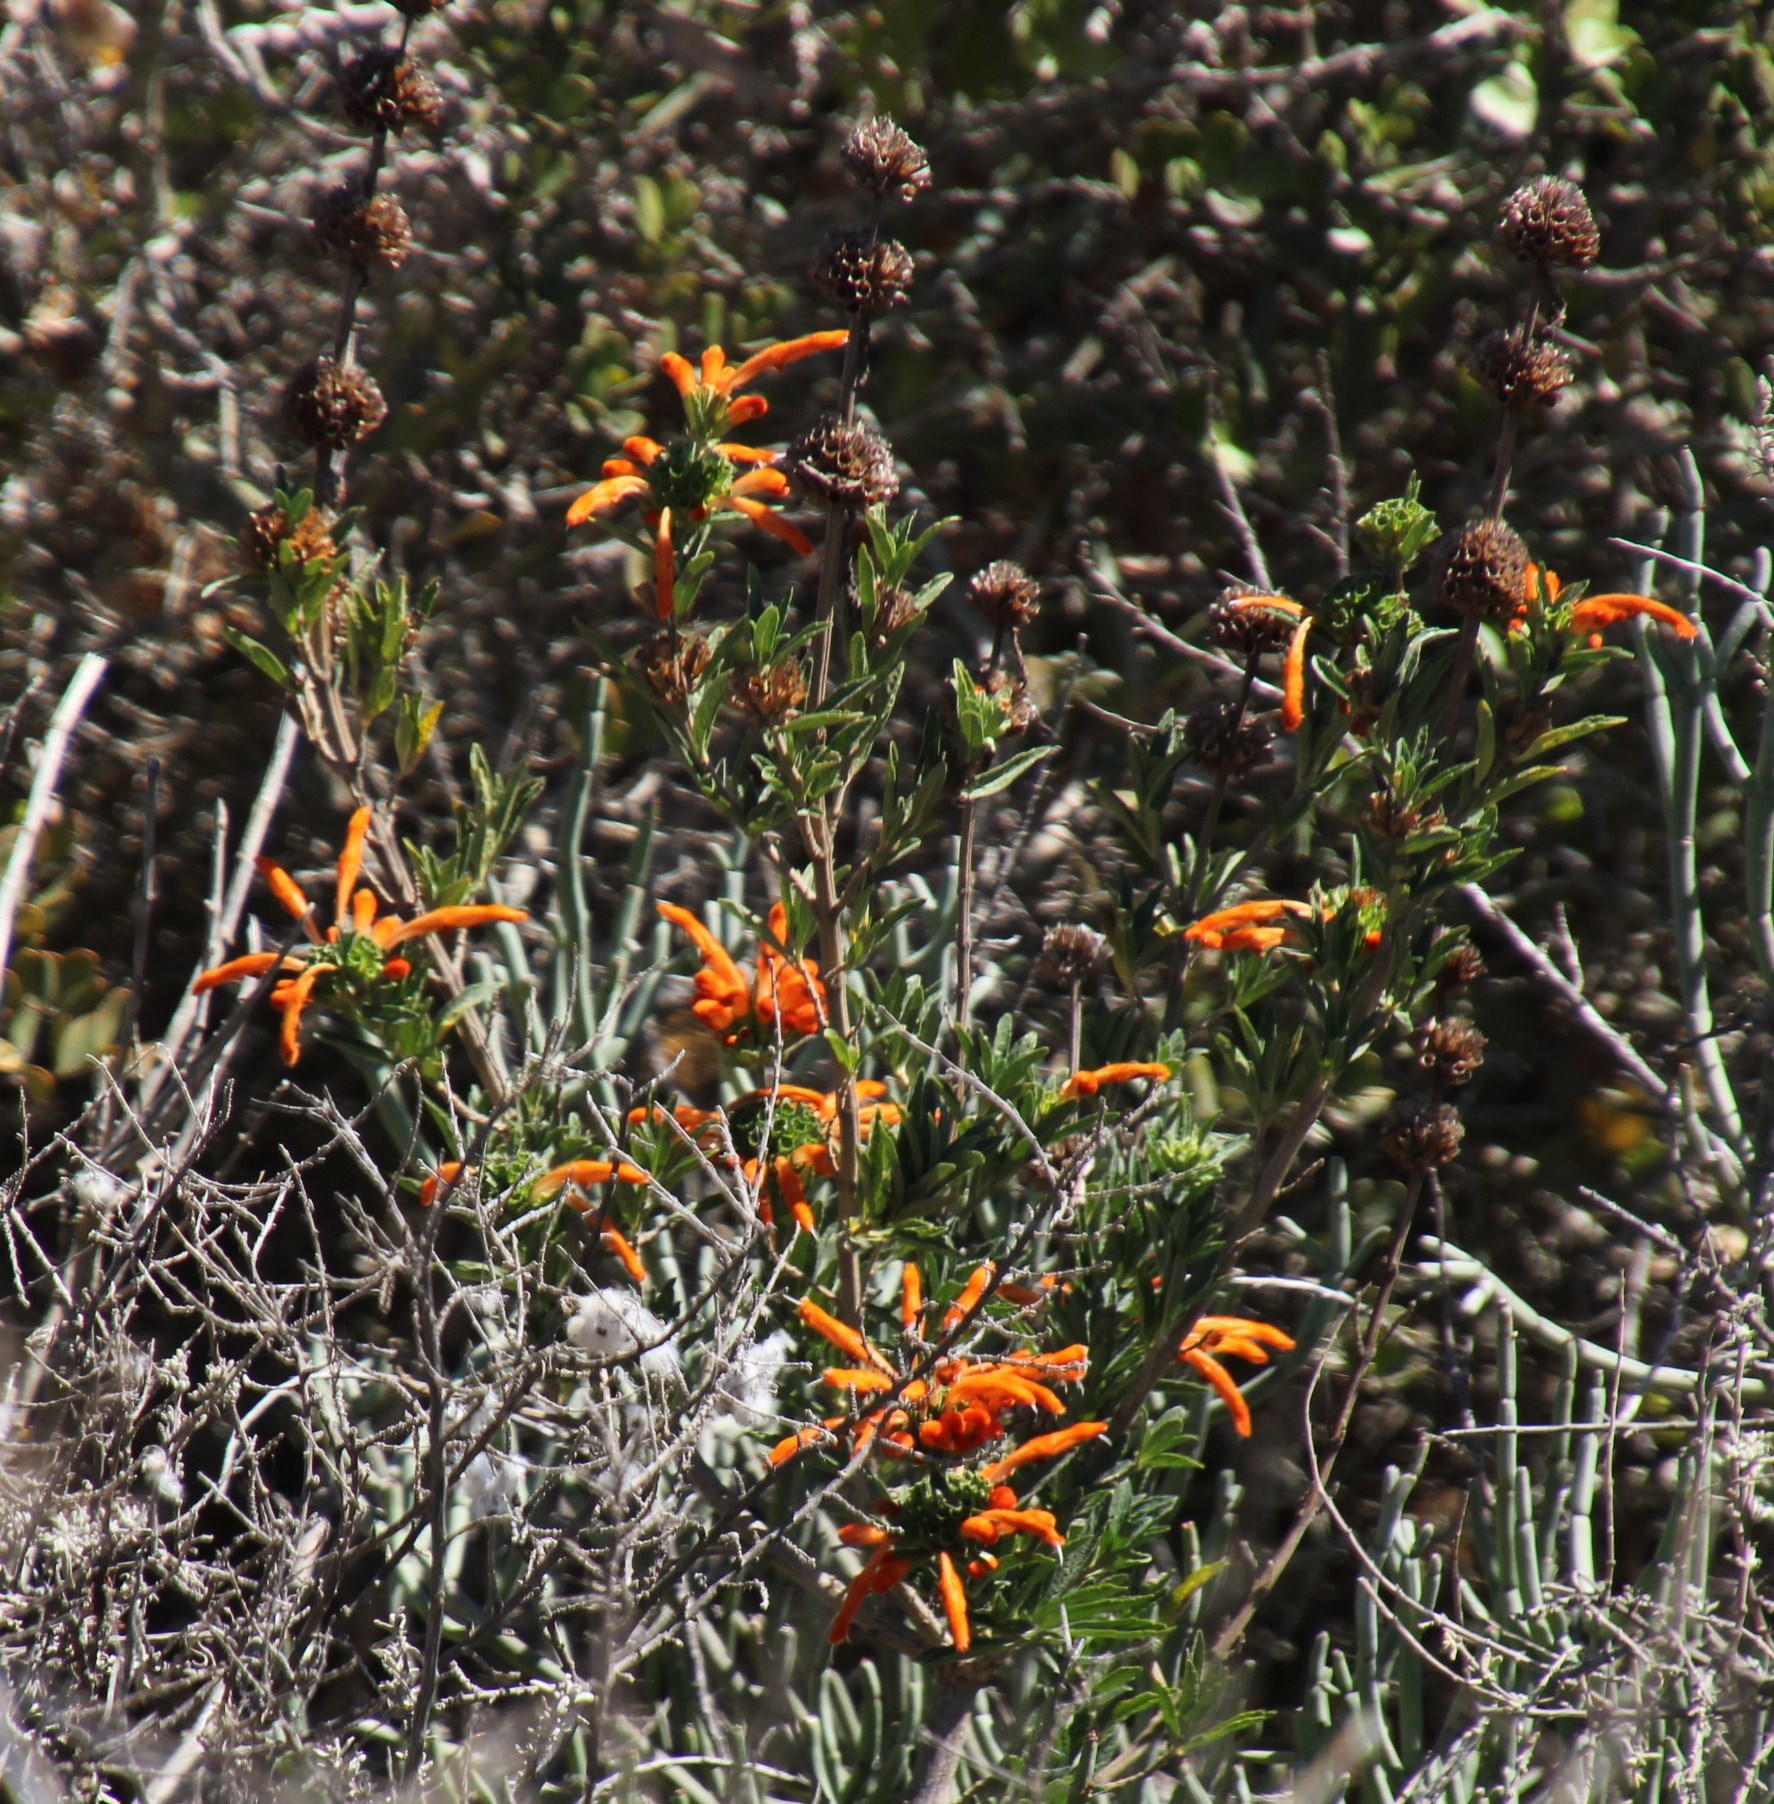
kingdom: Plantae
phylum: Tracheophyta
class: Magnoliopsida
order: Lamiales
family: Lamiaceae
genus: Leonotis
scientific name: Leonotis leonurus
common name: Lion's ear
